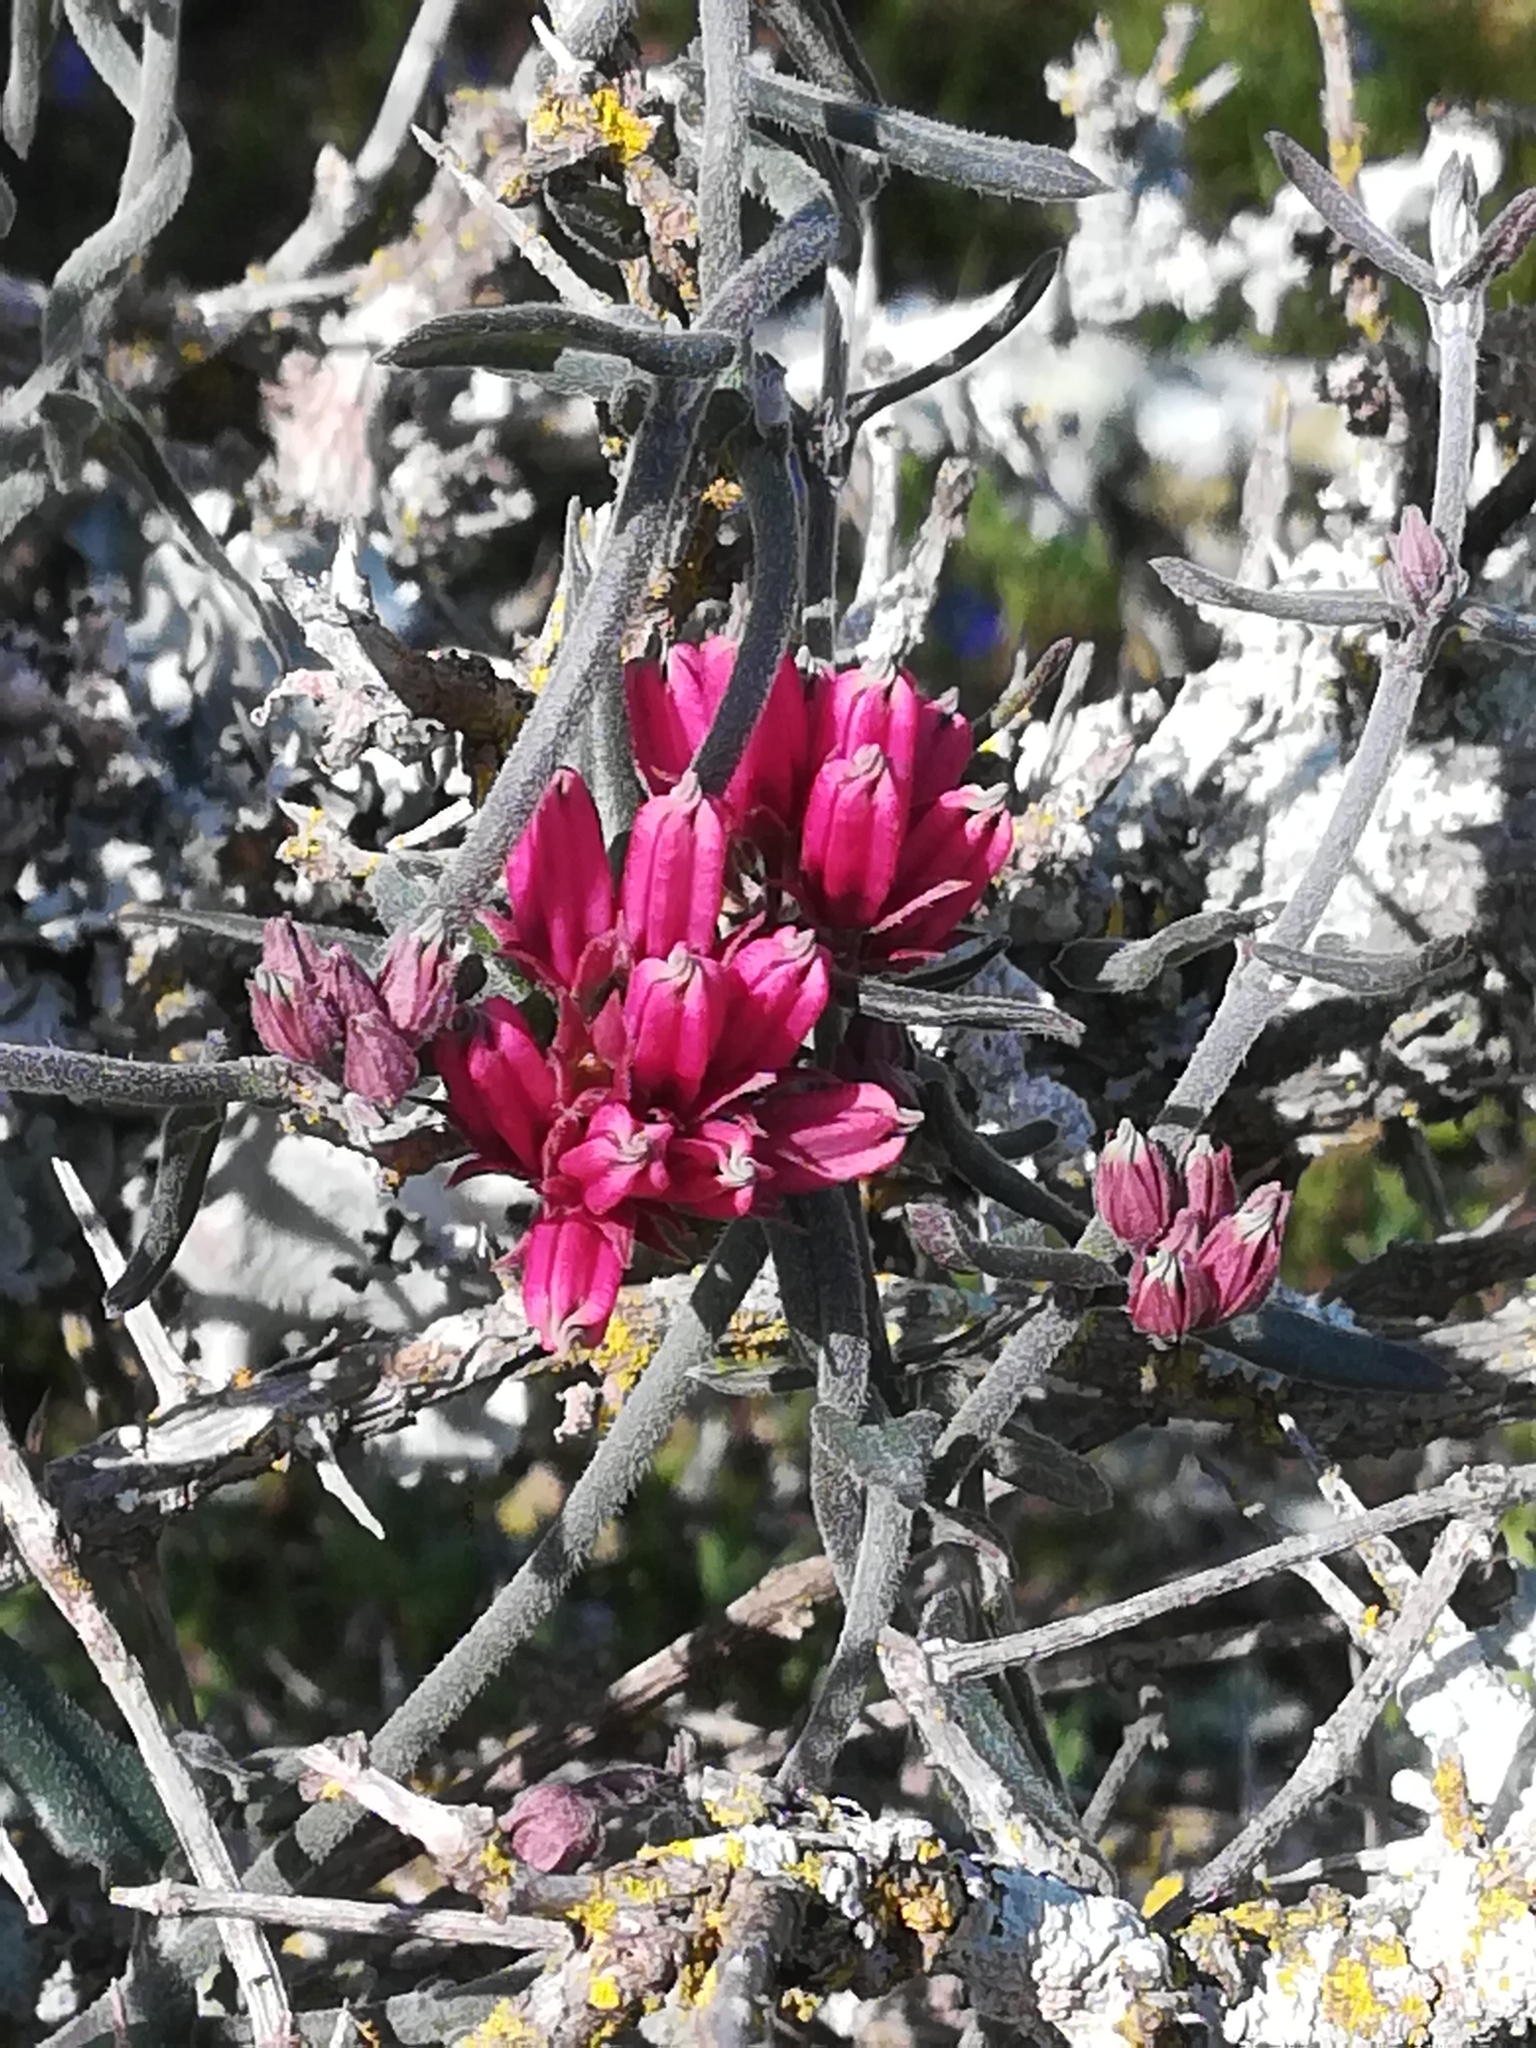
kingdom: Plantae
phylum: Tracheophyta
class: Magnoliopsida
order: Gentianales
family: Apocynaceae
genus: Microloma
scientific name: Microloma sagittatum
